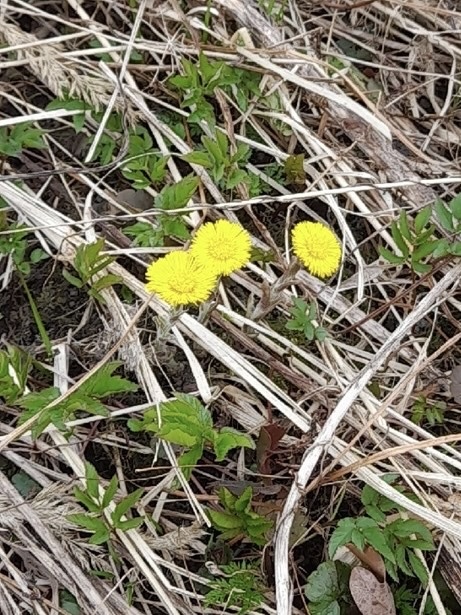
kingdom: Plantae
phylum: Tracheophyta
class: Magnoliopsida
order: Asterales
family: Asteraceae
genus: Tussilago
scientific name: Tussilago farfara
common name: Coltsfoot
